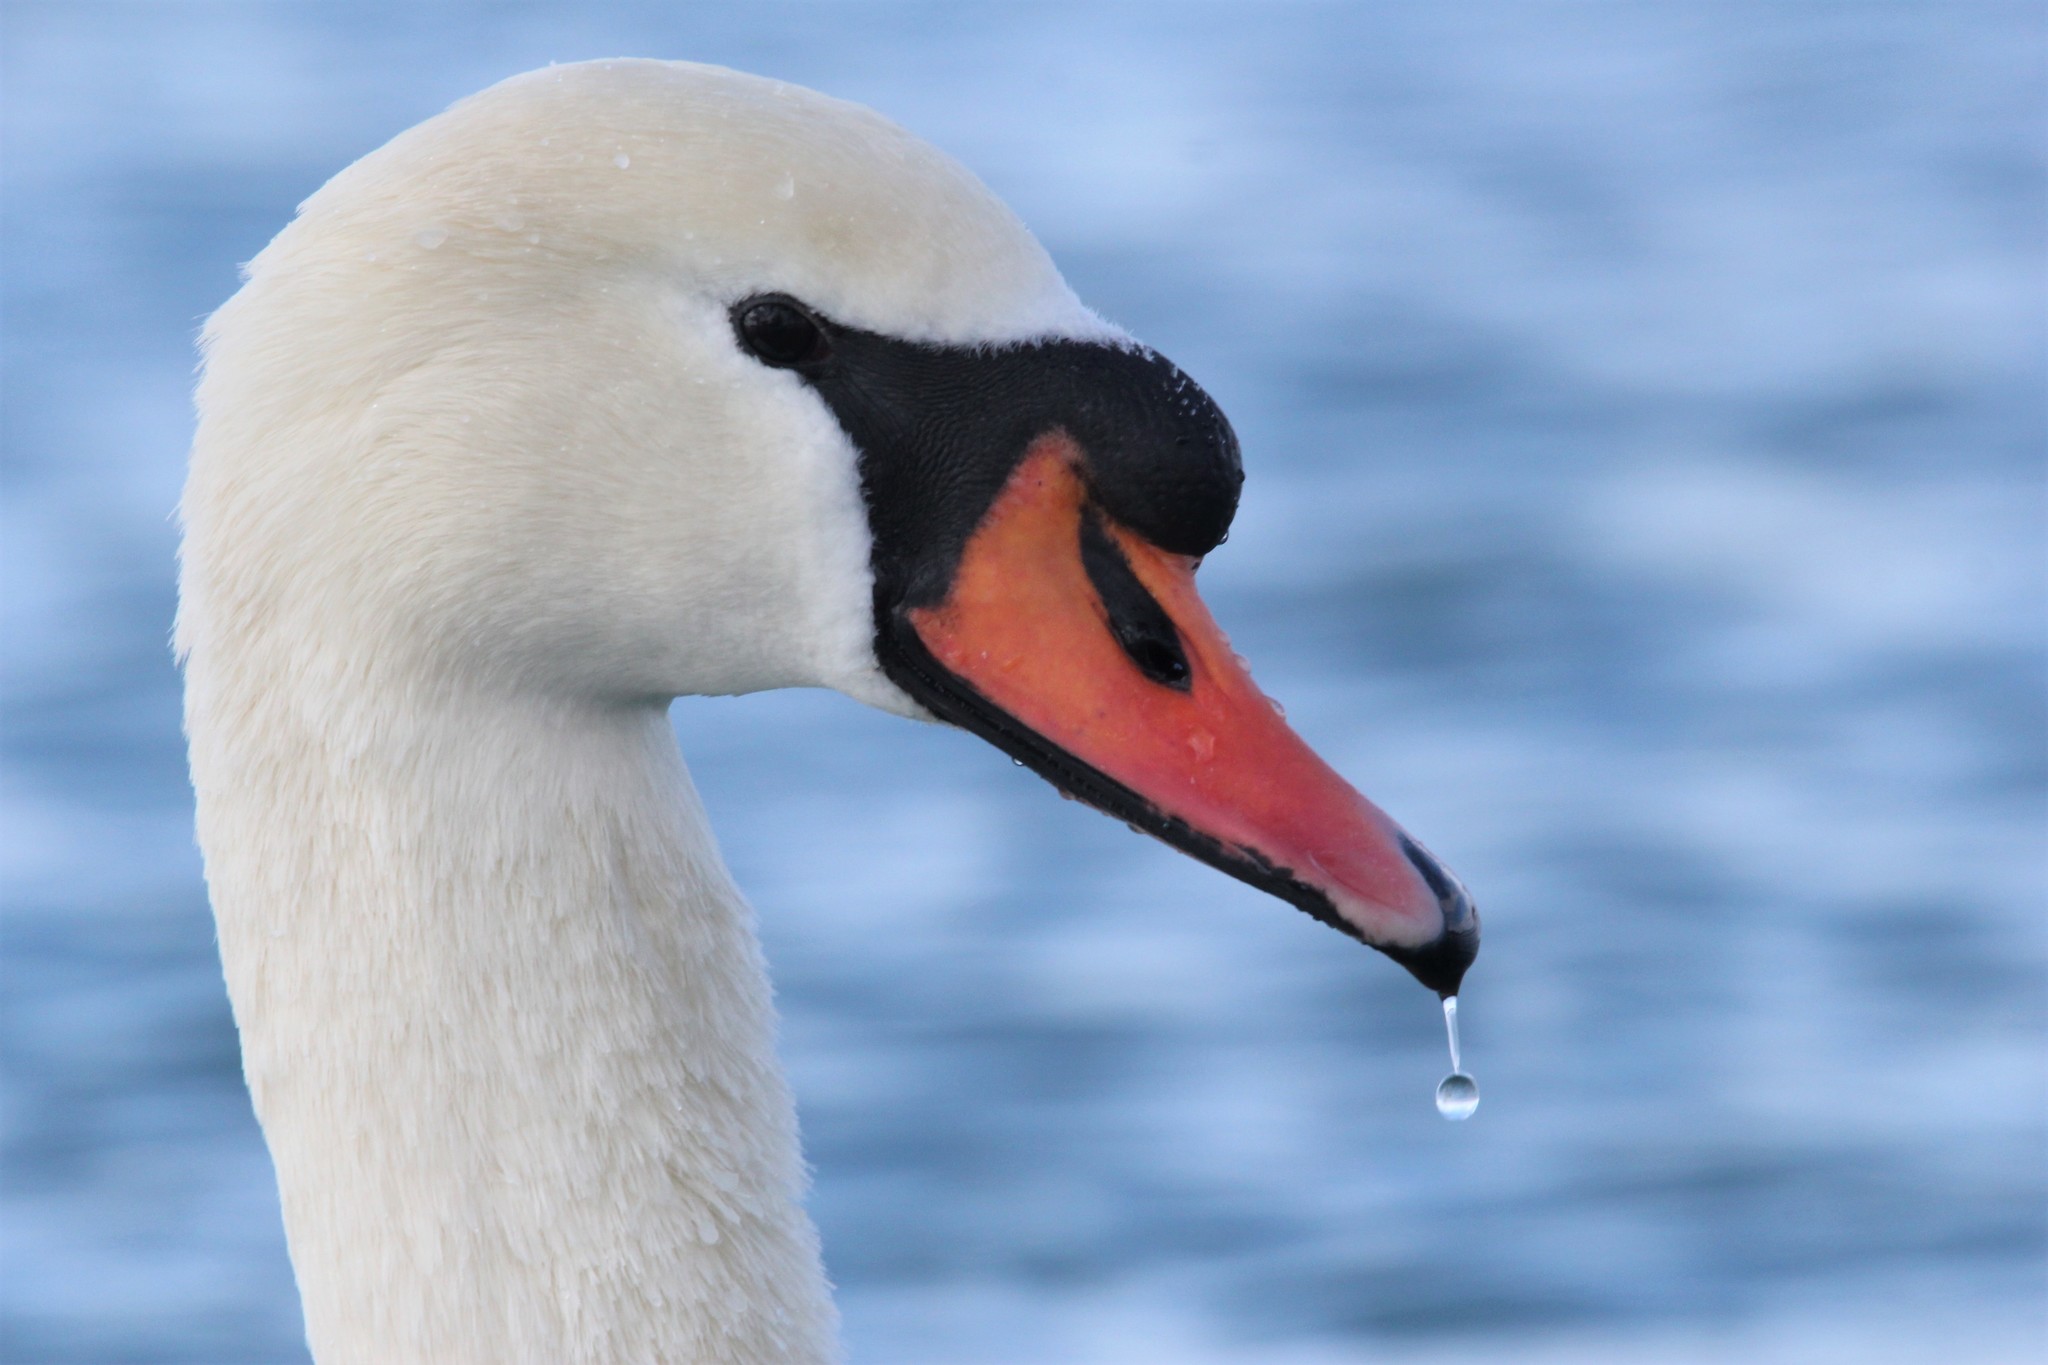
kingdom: Animalia
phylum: Chordata
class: Aves
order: Anseriformes
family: Anatidae
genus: Cygnus
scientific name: Cygnus olor
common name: Mute swan
